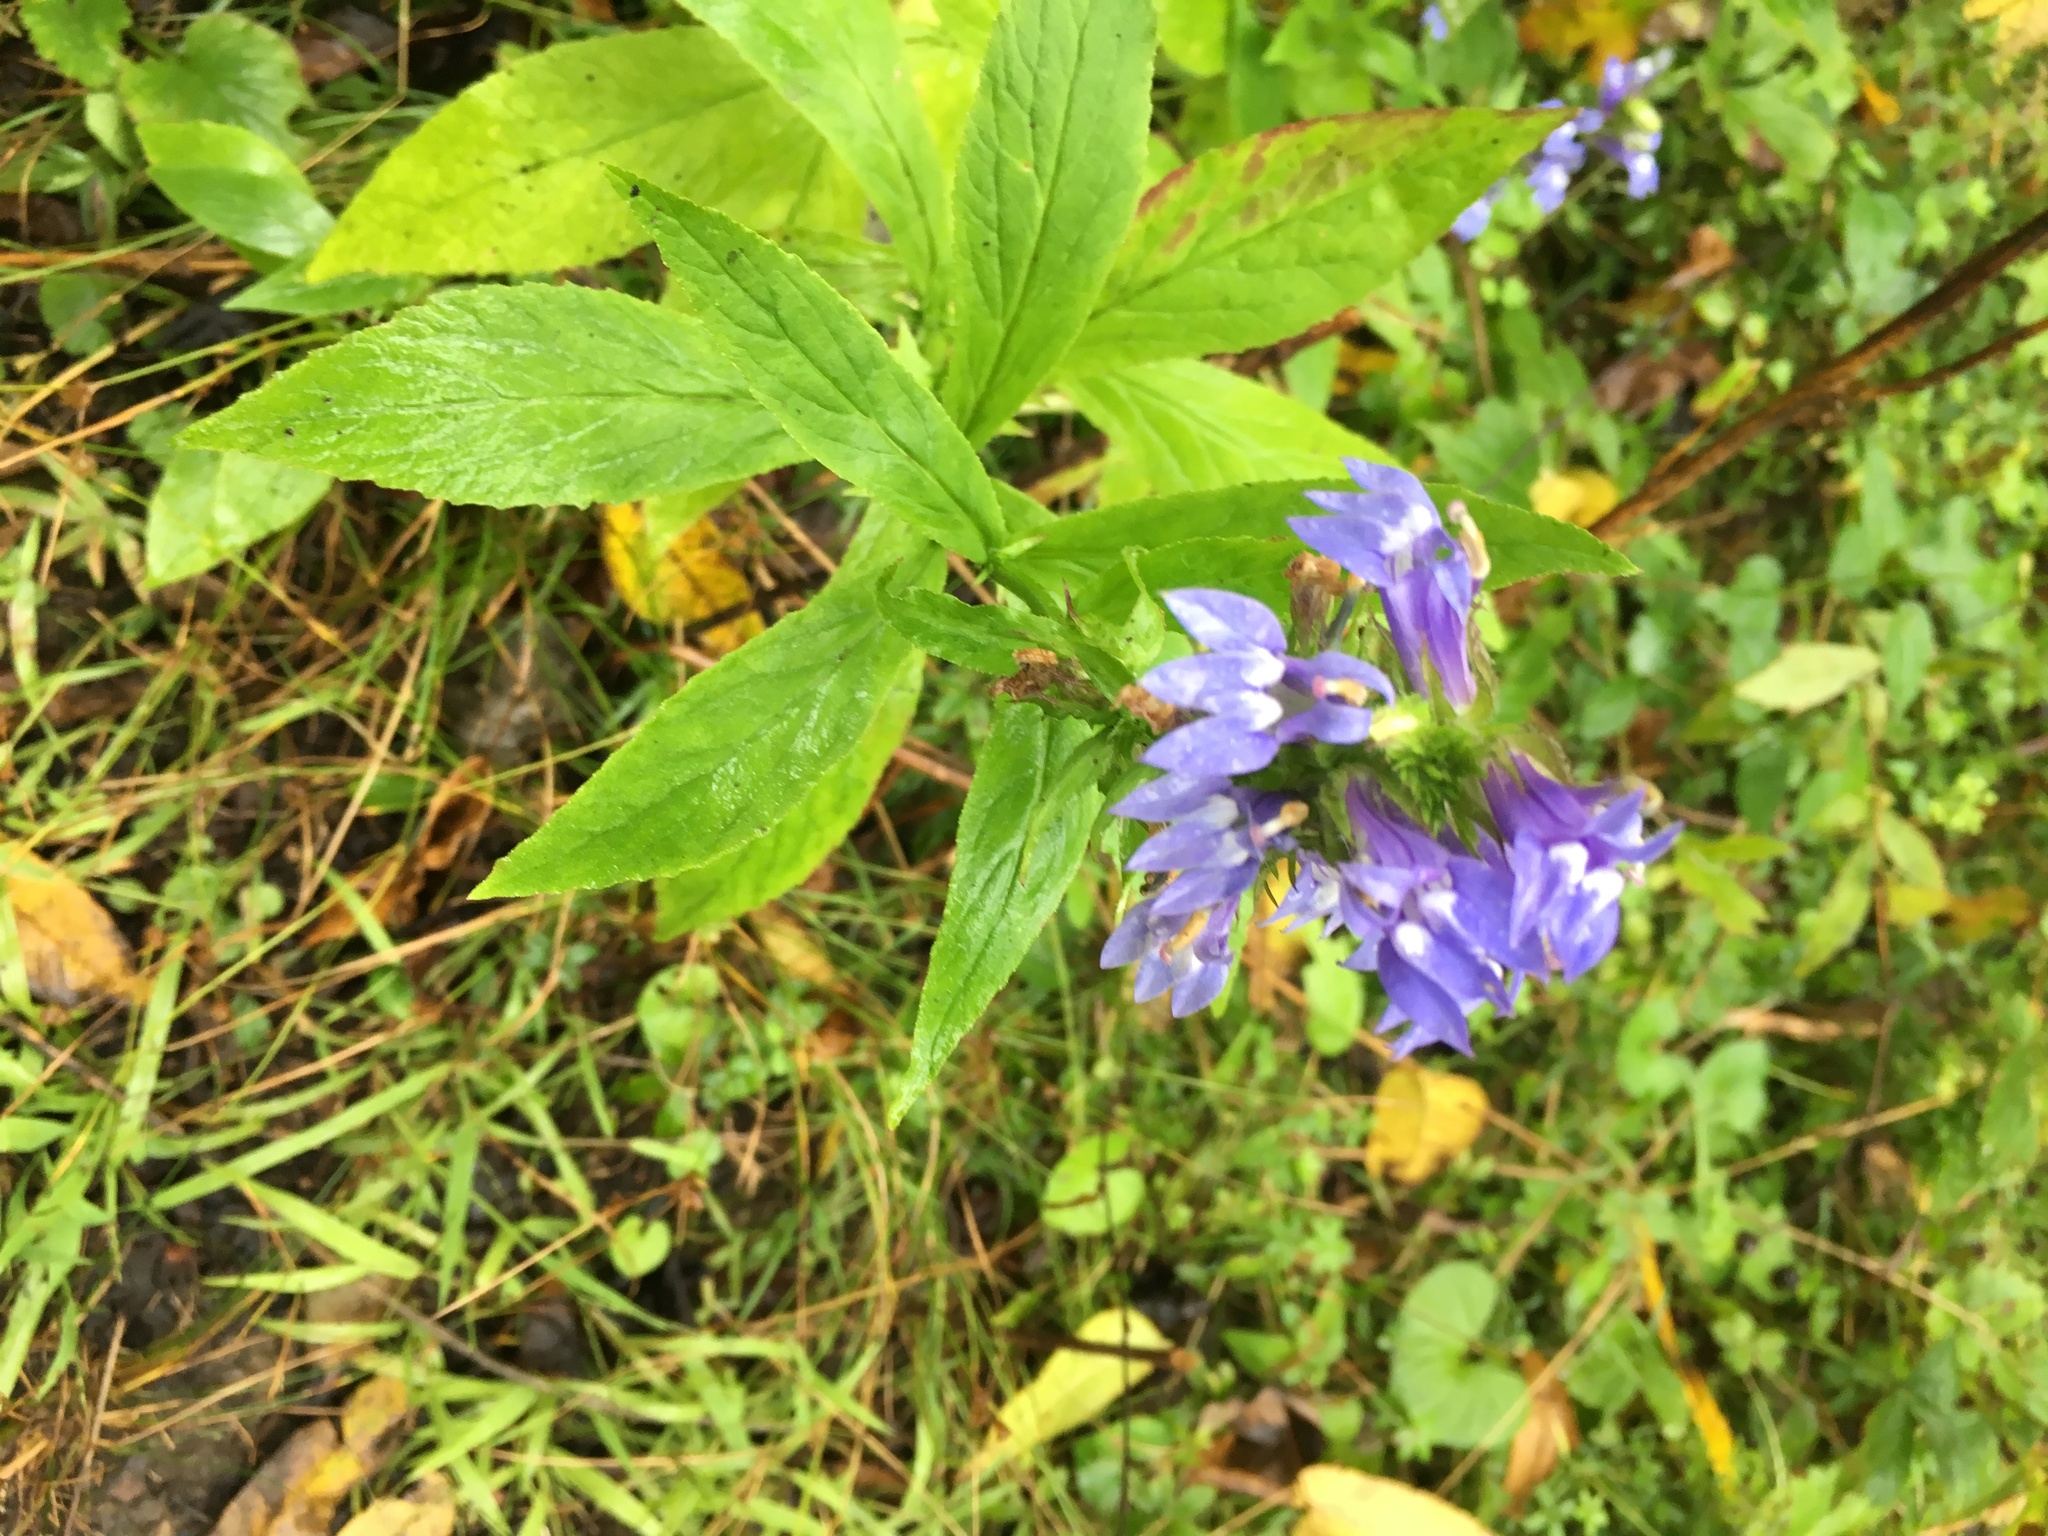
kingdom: Plantae
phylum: Tracheophyta
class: Magnoliopsida
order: Asterales
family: Campanulaceae
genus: Lobelia
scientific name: Lobelia siphilitica
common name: Great lobelia
